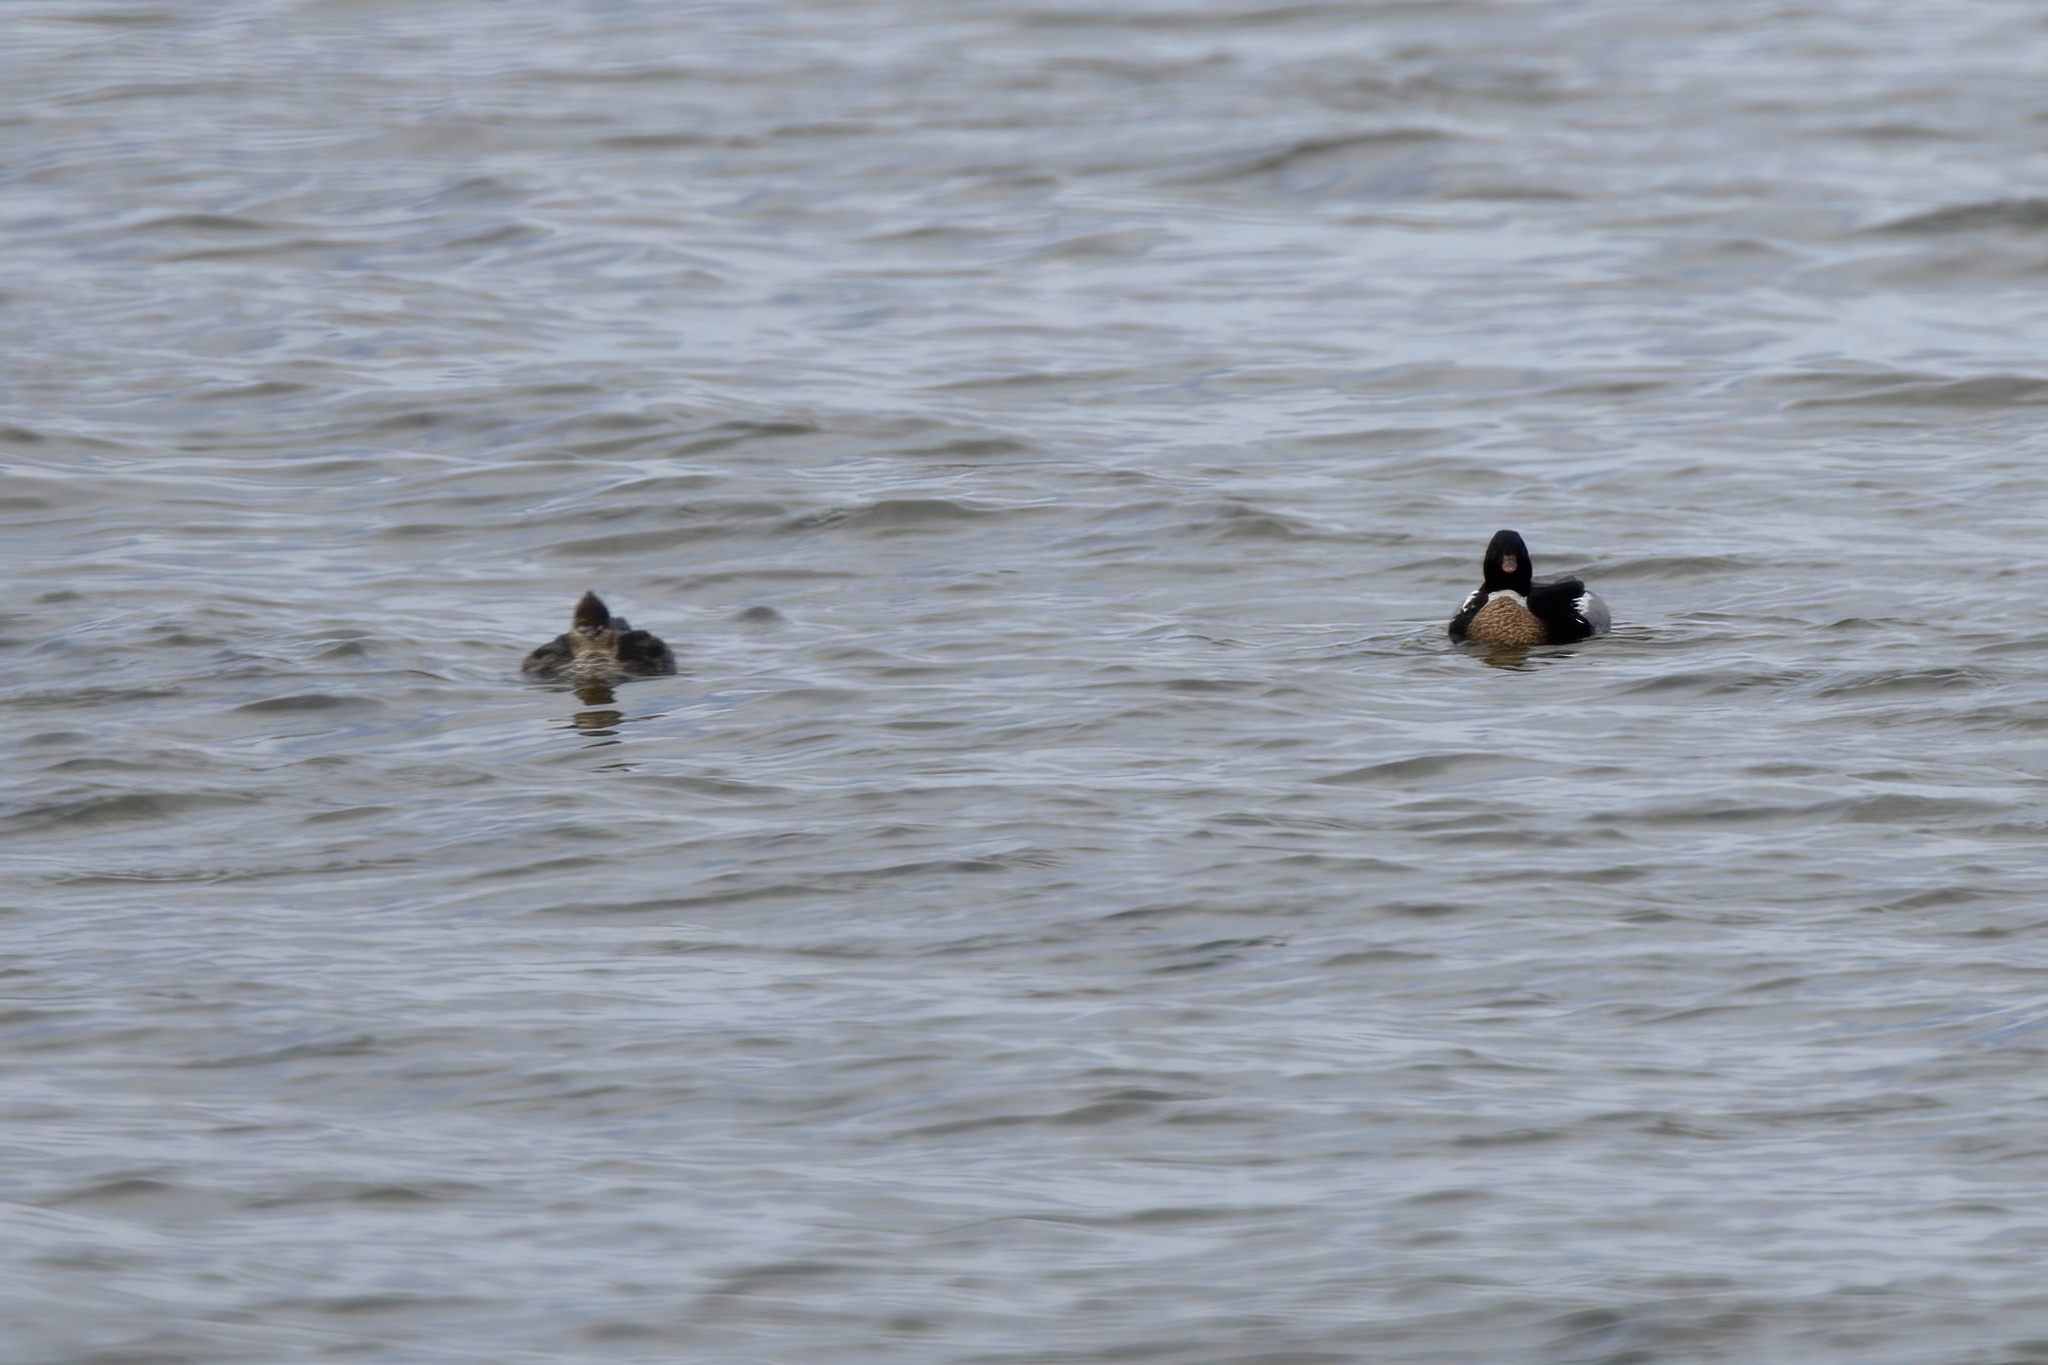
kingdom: Animalia
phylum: Chordata
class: Aves
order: Anseriformes
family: Anatidae
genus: Mergus
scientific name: Mergus serrator
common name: Red-breasted merganser
